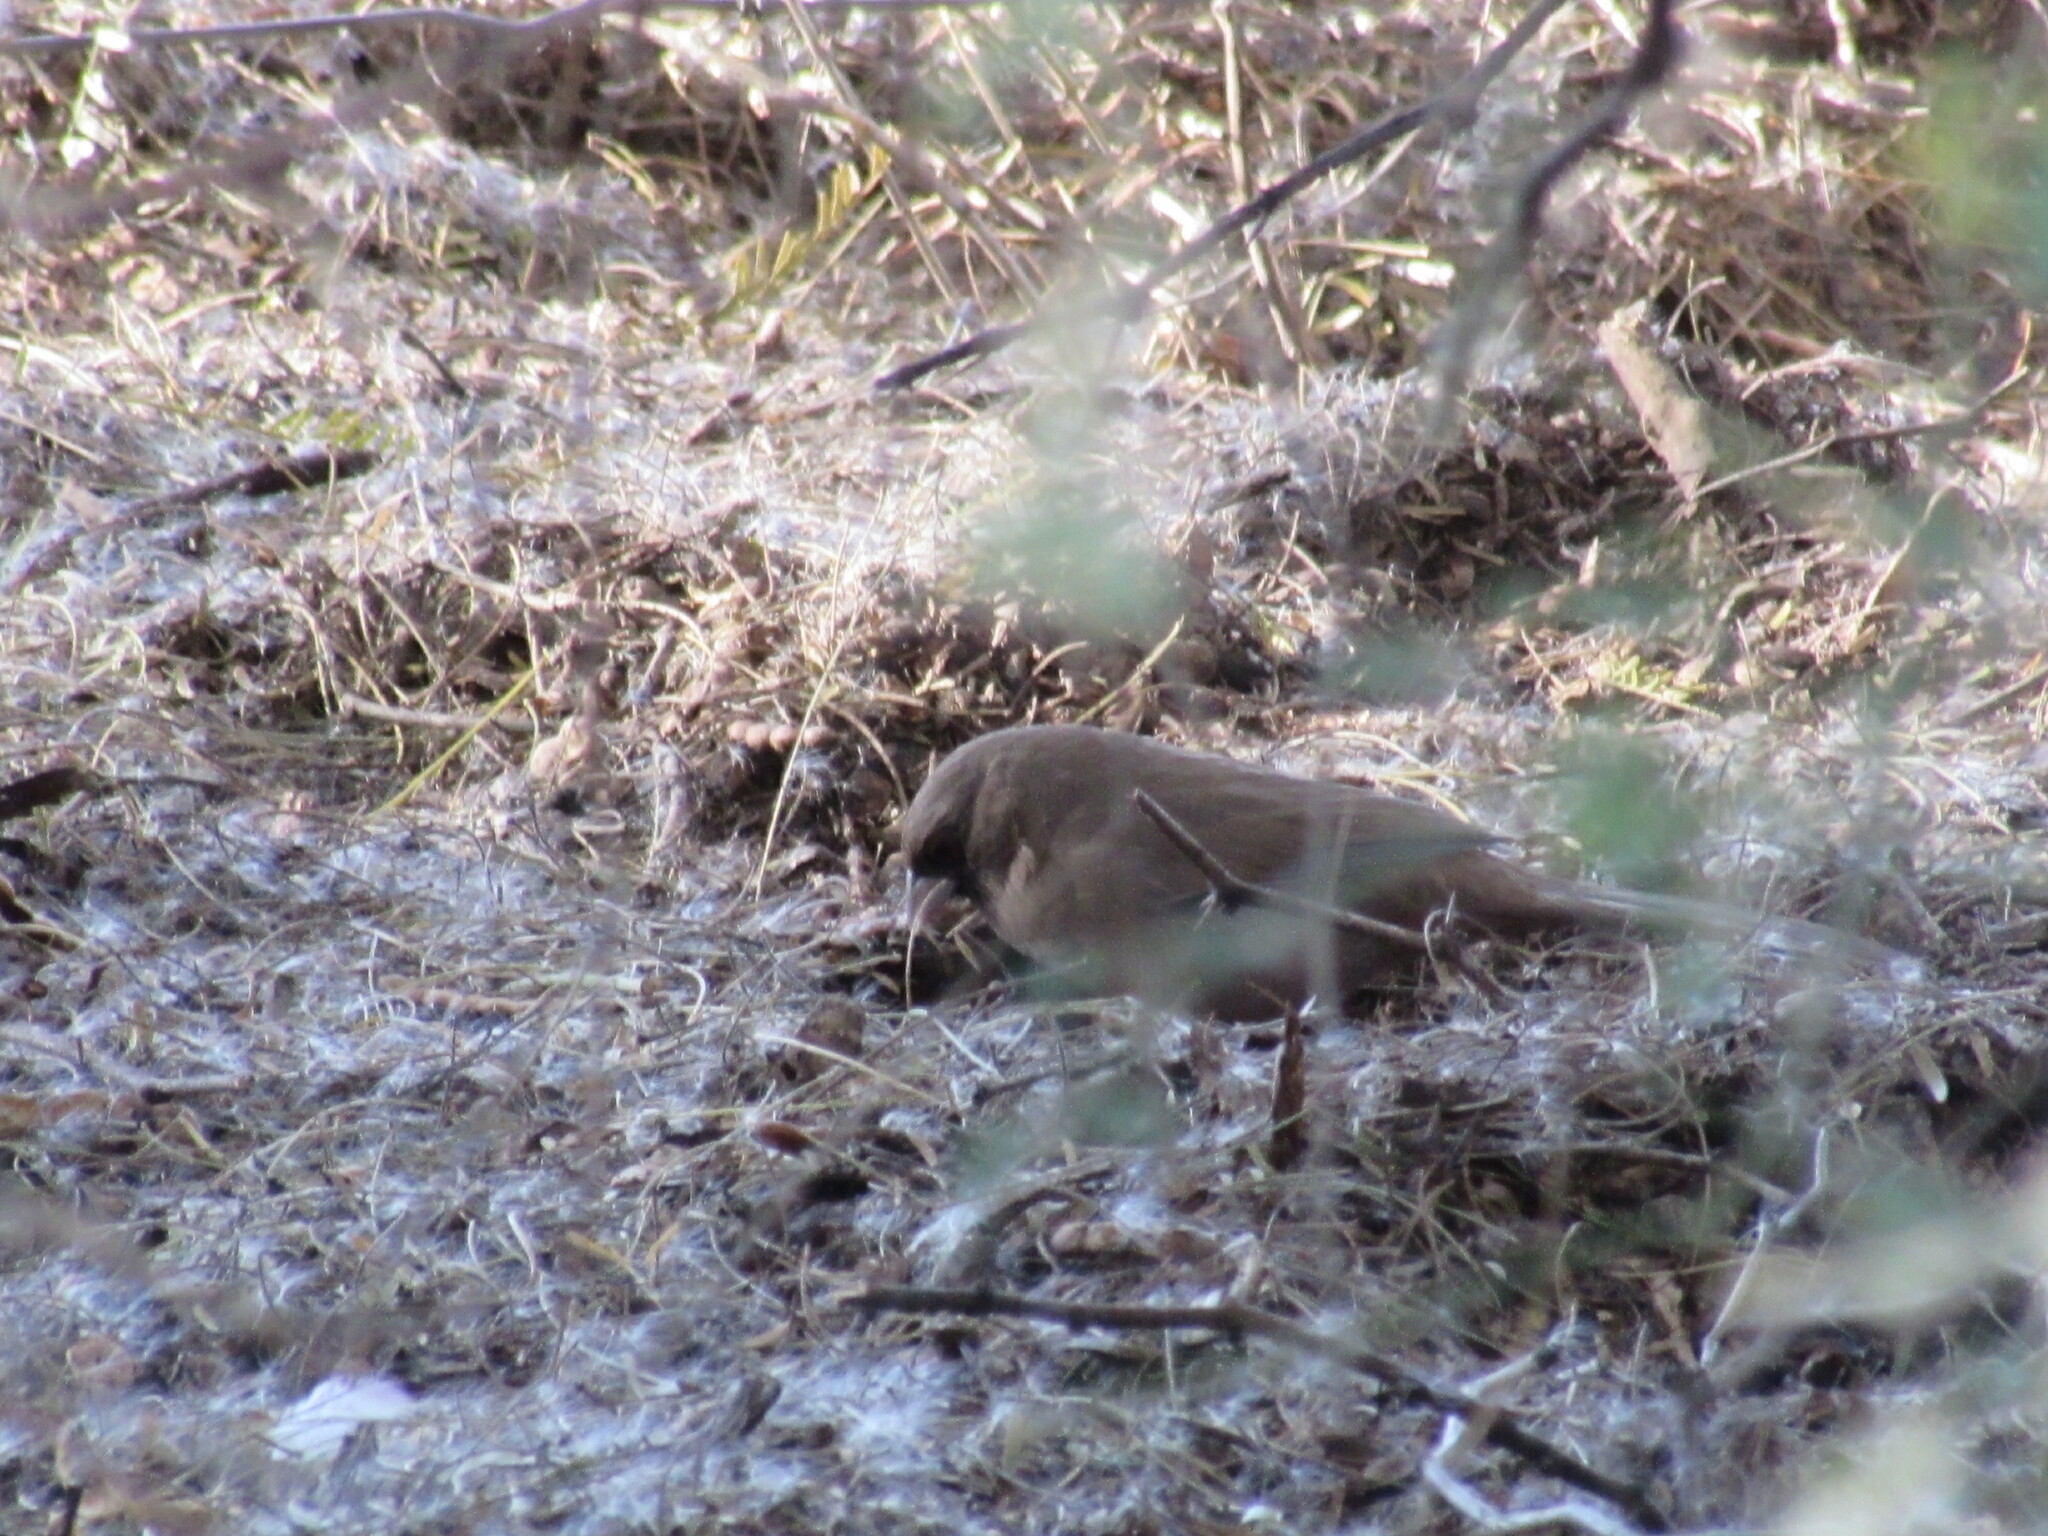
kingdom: Animalia
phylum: Chordata
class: Aves
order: Passeriformes
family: Passerellidae
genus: Melozone
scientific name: Melozone aberti
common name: Abert's towhee
